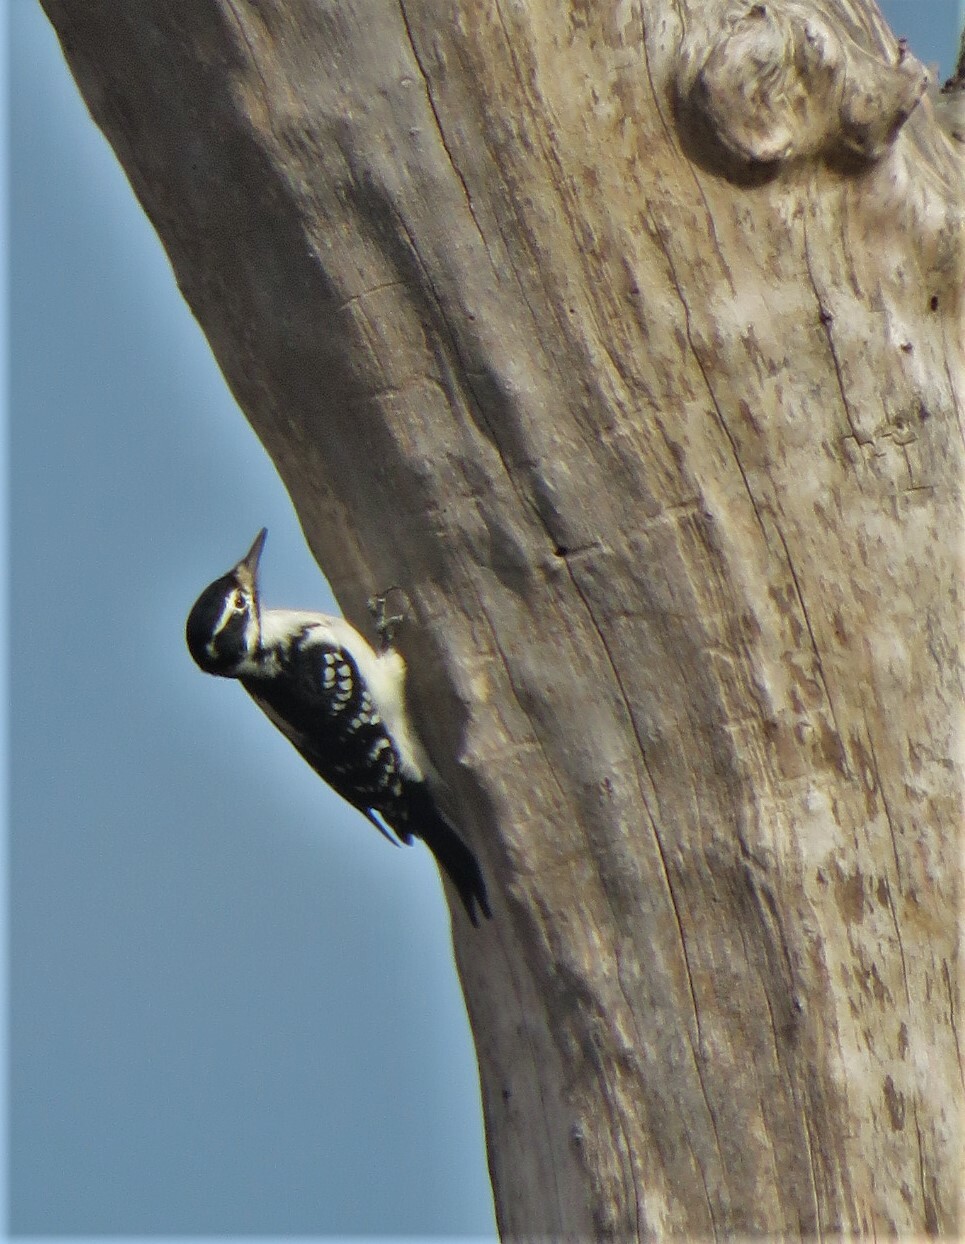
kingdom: Animalia
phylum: Chordata
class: Aves
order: Piciformes
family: Picidae
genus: Leuconotopicus
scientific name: Leuconotopicus villosus
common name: Hairy woodpecker
